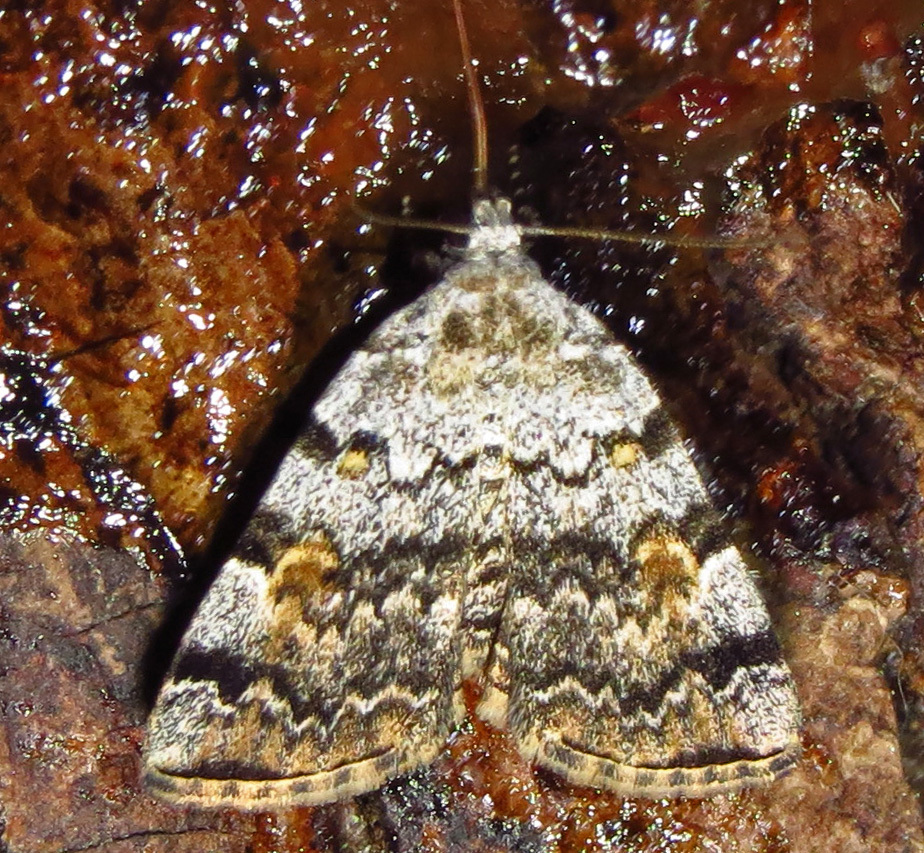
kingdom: Animalia
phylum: Arthropoda
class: Insecta
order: Lepidoptera
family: Erebidae
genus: Idia
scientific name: Idia americalis
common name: American idia moth
